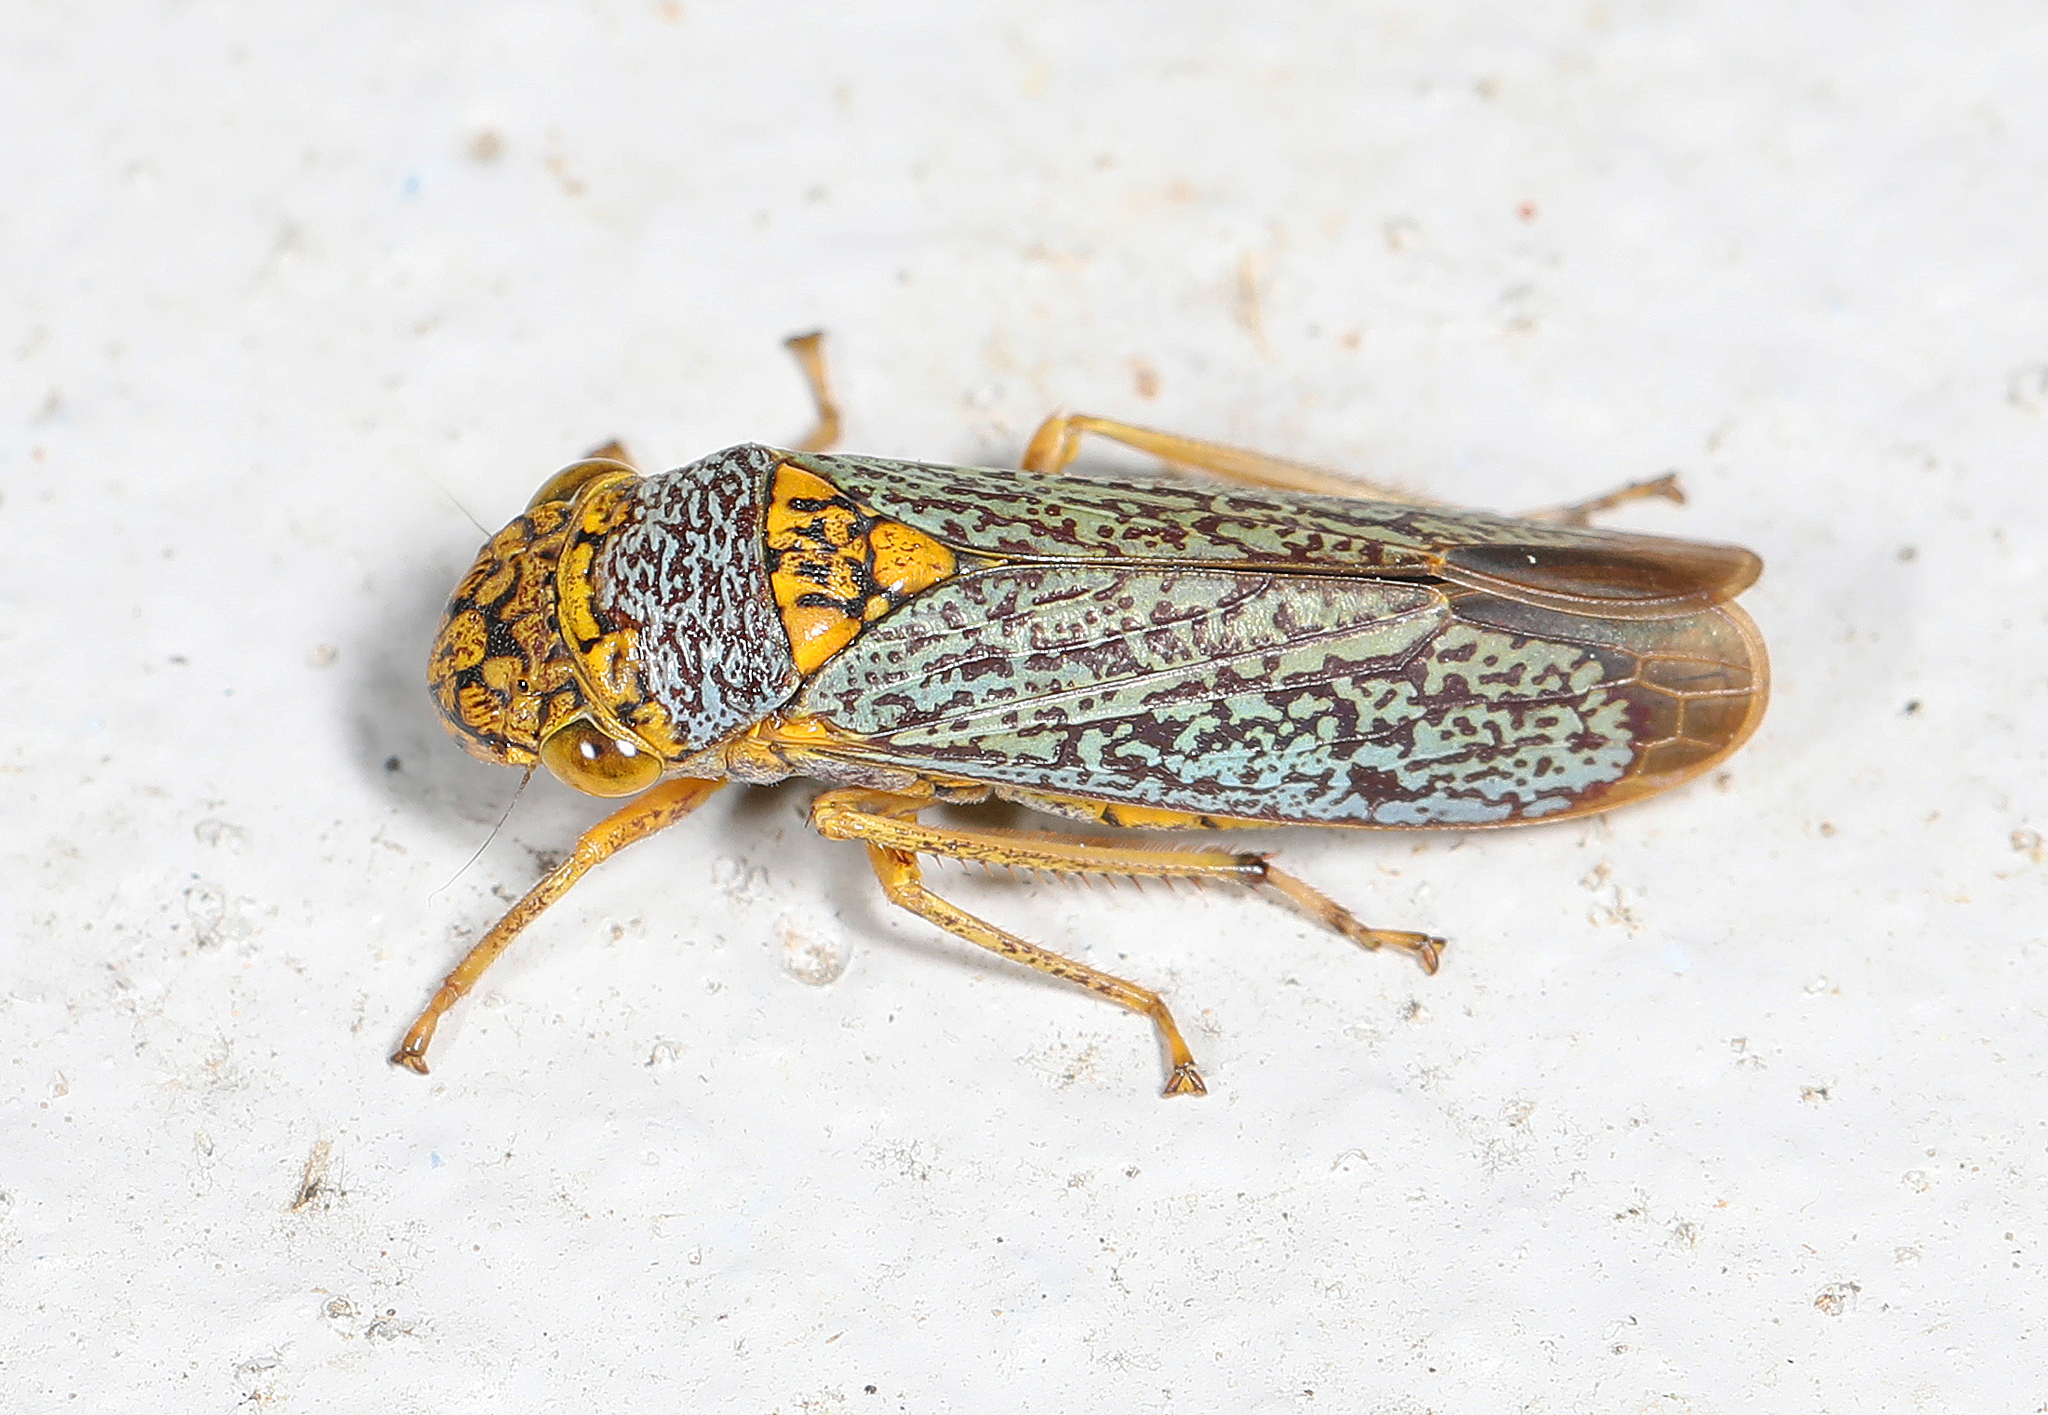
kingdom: Animalia
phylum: Arthropoda
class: Insecta
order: Hemiptera
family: Cicadellidae
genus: Oncometopia
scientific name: Oncometopia orbona
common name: Broad-headed sharpshooter
